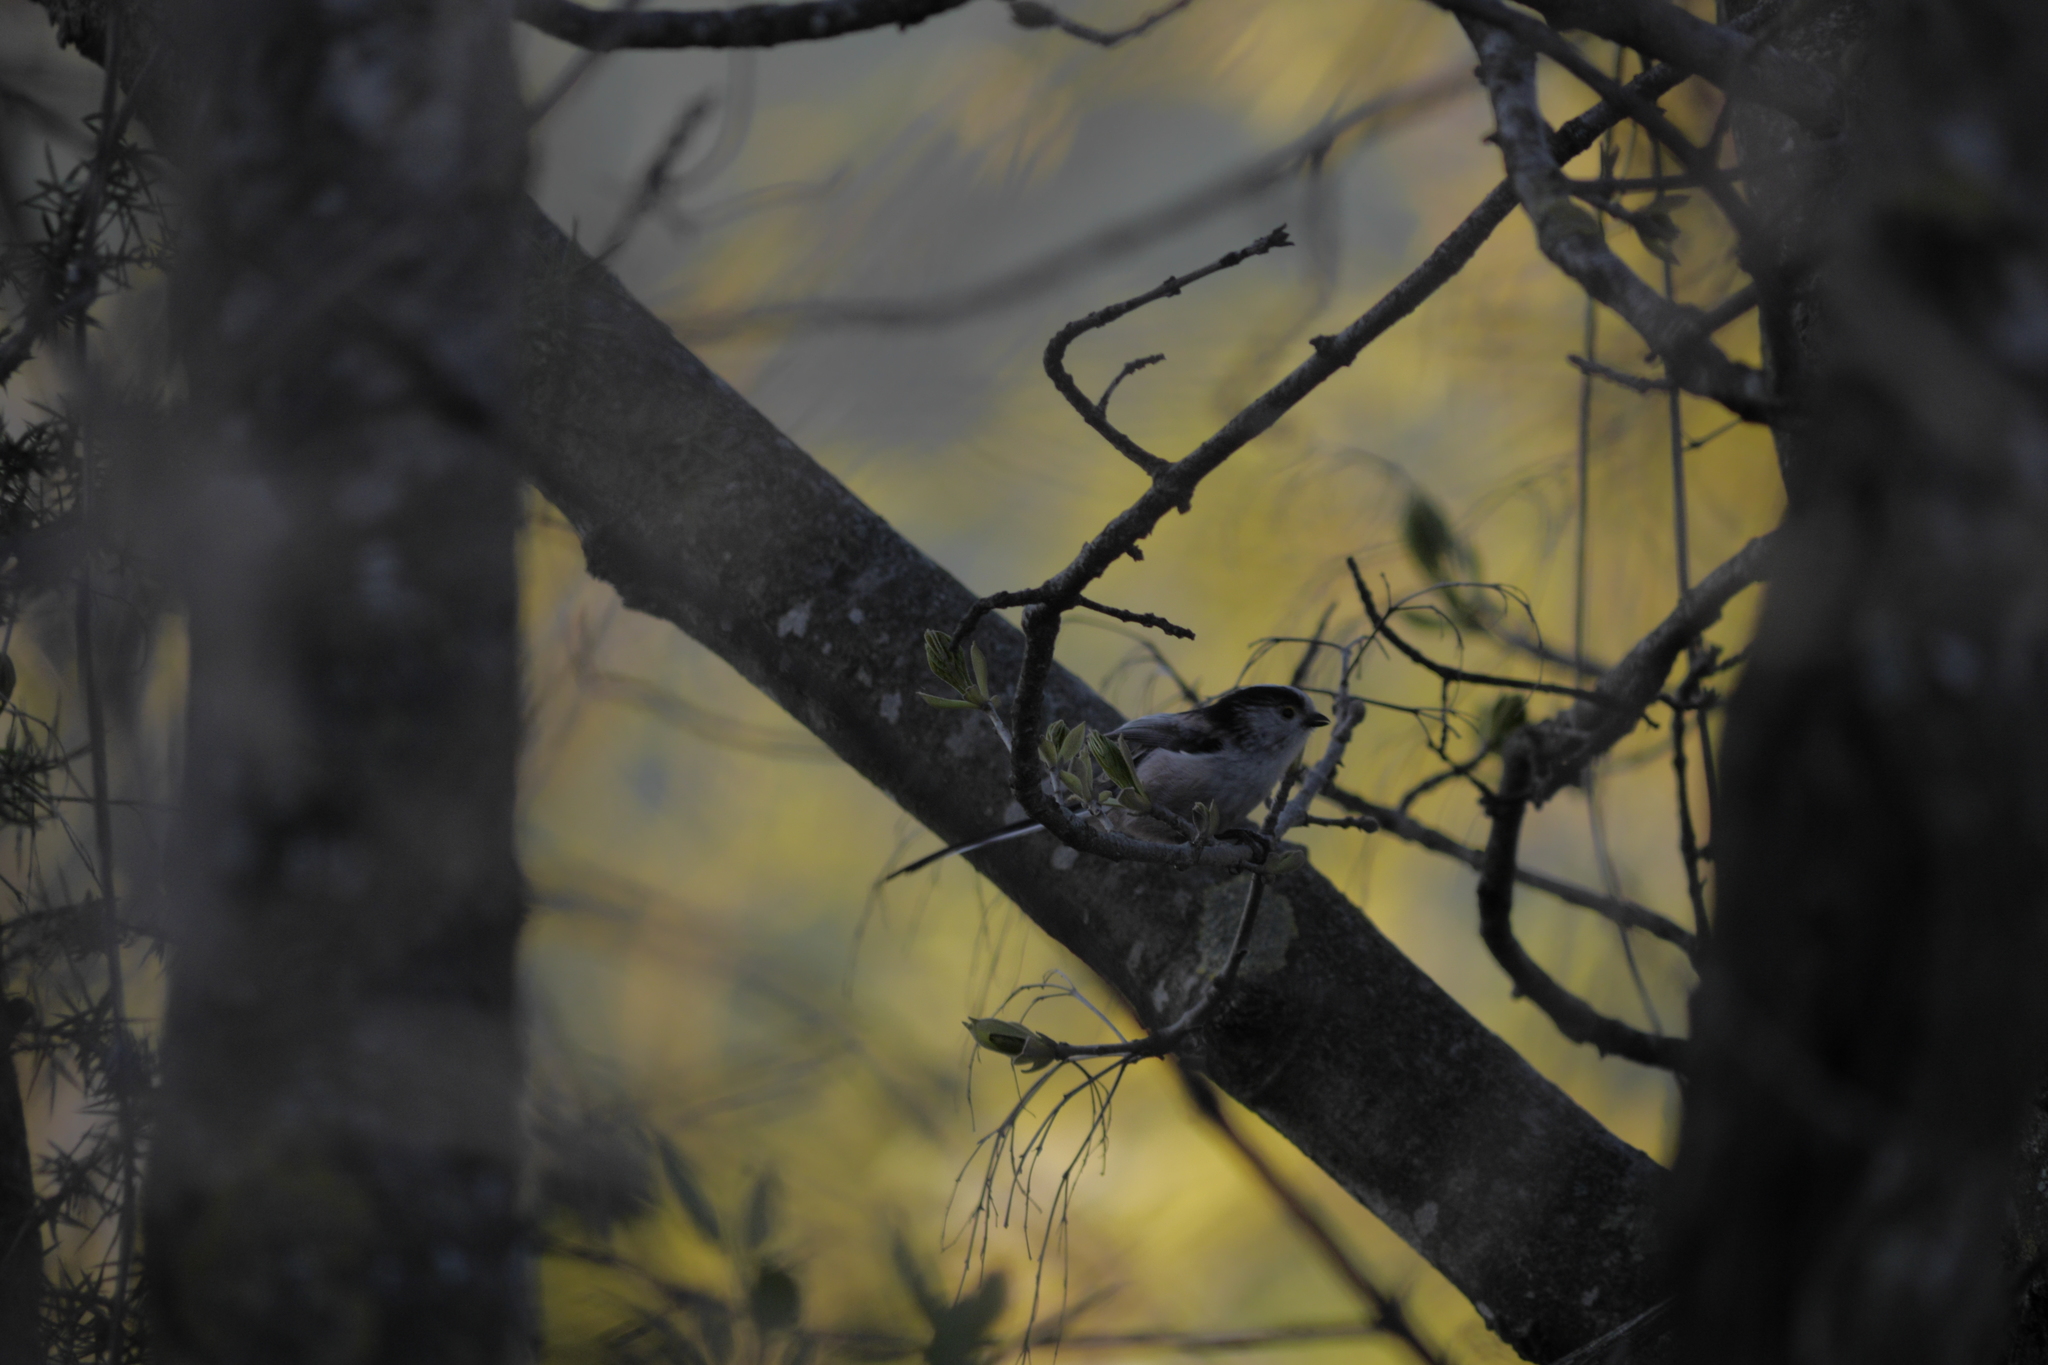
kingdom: Animalia
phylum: Chordata
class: Aves
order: Passeriformes
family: Aegithalidae
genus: Aegithalos
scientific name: Aegithalos caudatus
